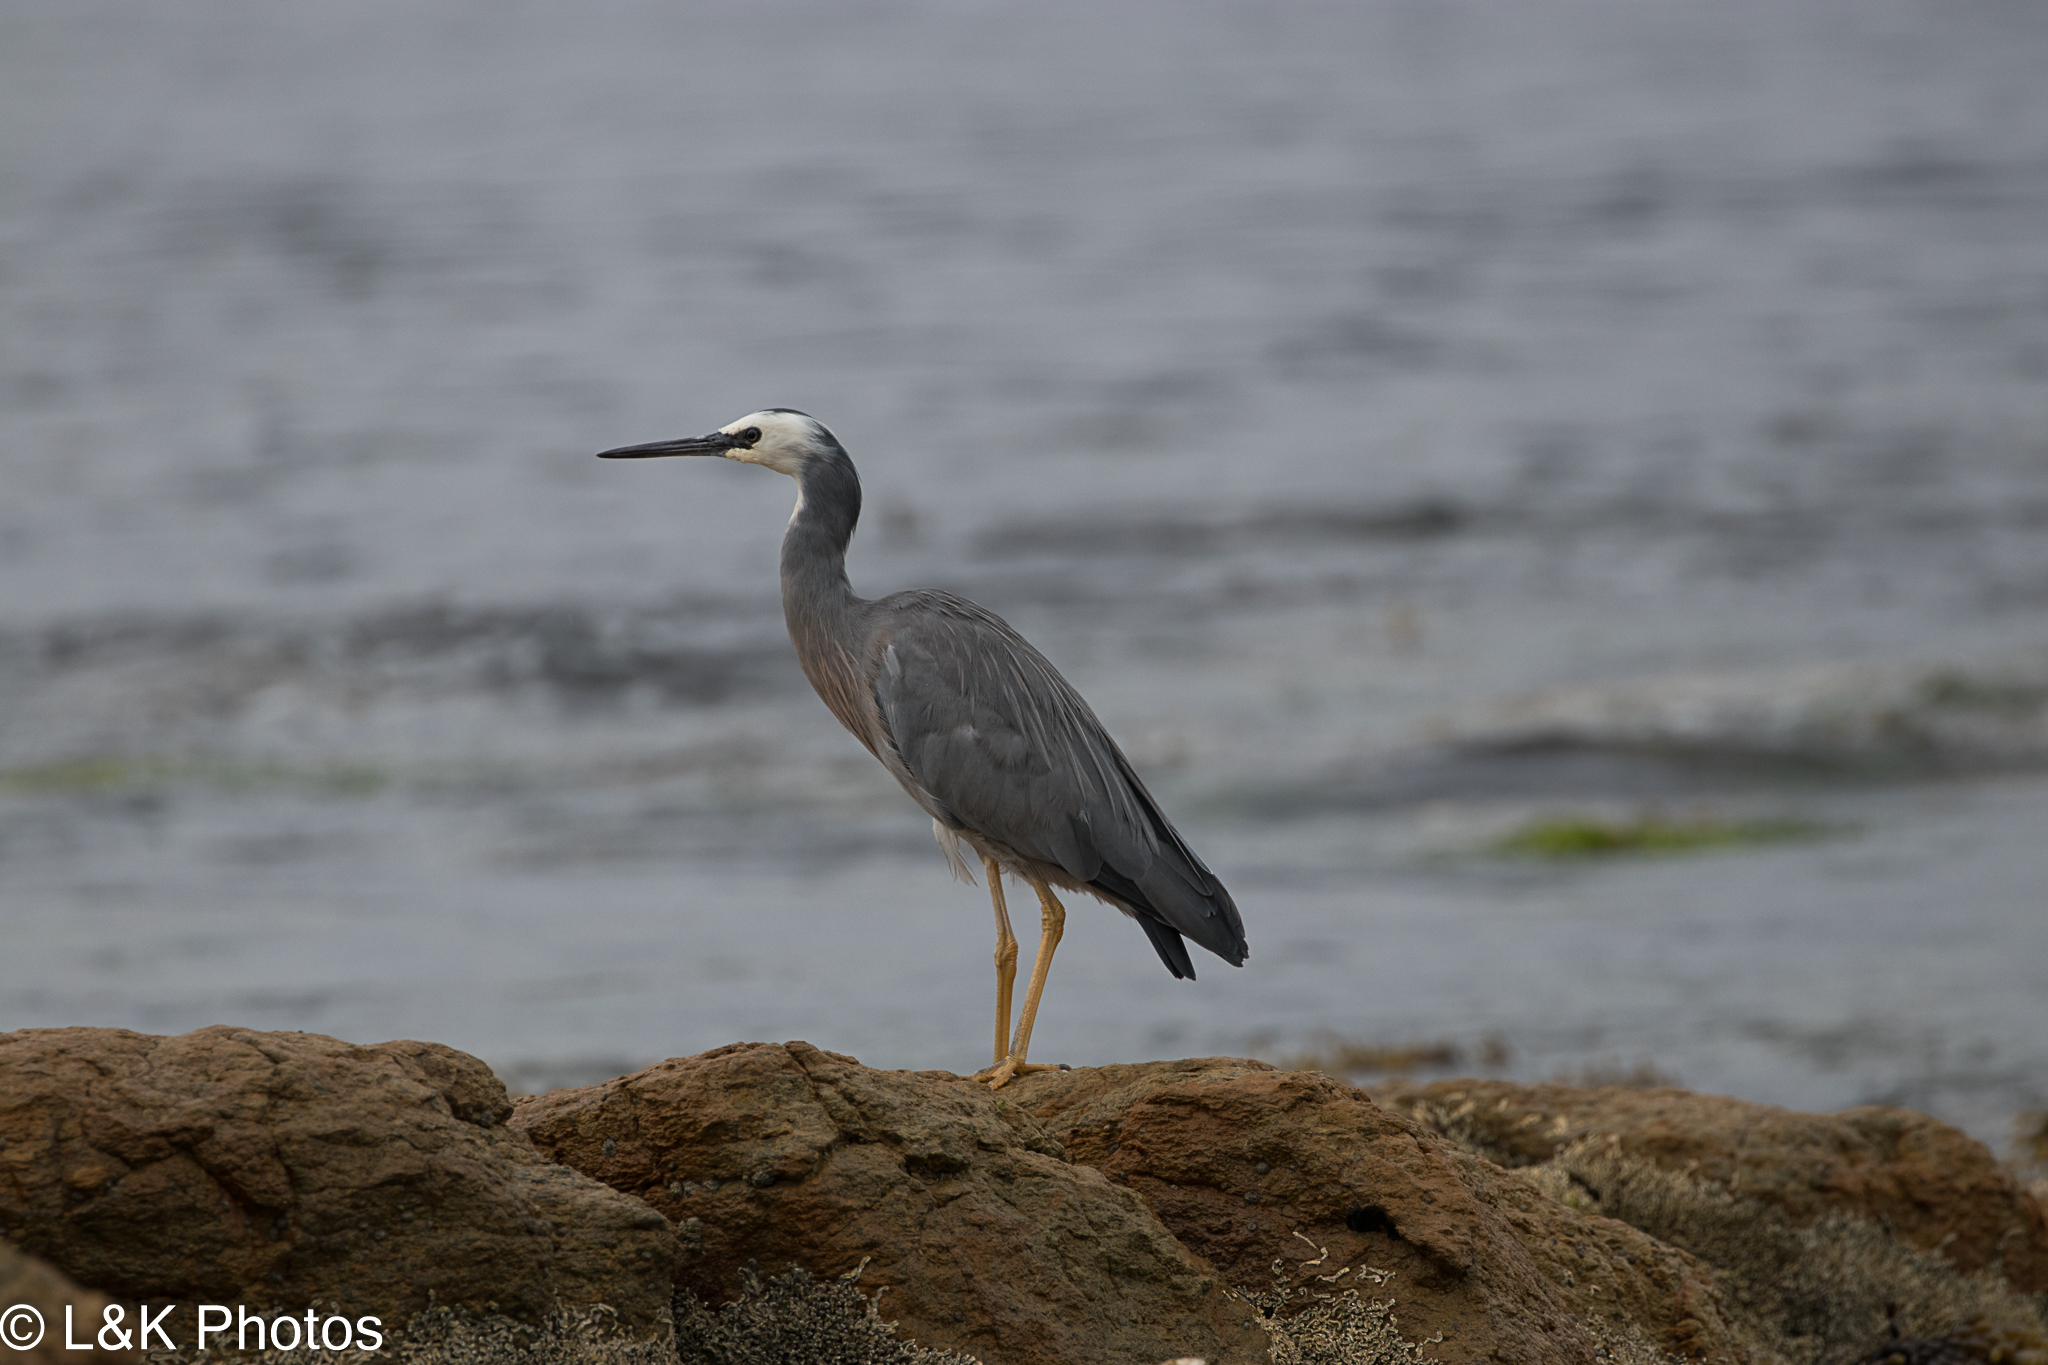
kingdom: Animalia
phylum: Chordata
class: Aves
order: Pelecaniformes
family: Ardeidae
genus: Egretta
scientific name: Egretta novaehollandiae
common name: White-faced heron
